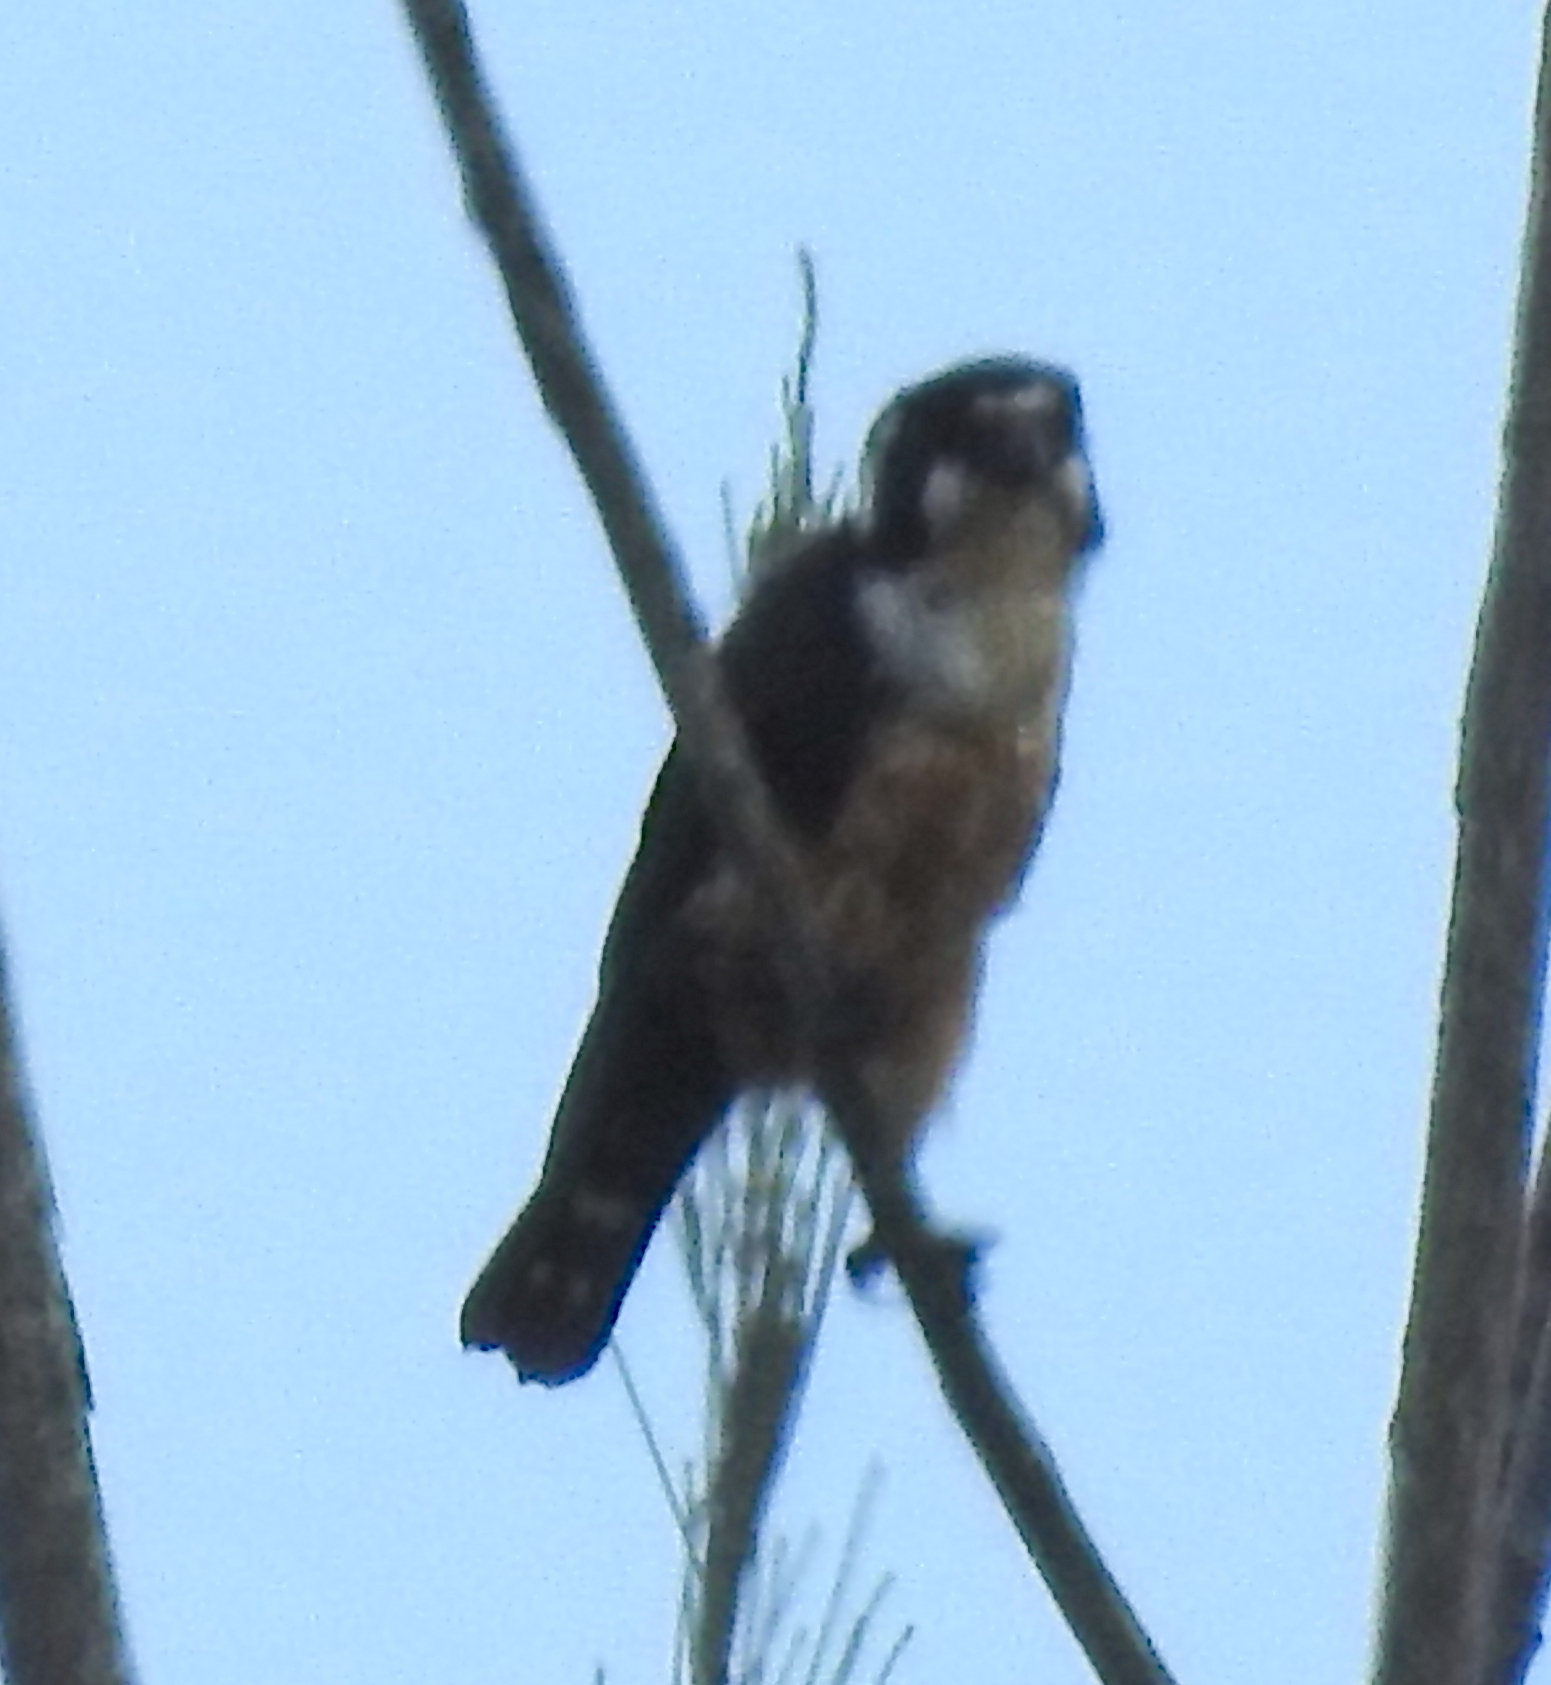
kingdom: Animalia
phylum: Chordata
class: Aves
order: Falconiformes
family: Falconidae
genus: Microhierax
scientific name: Microhierax fringillarius
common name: Black-thighed falconet
